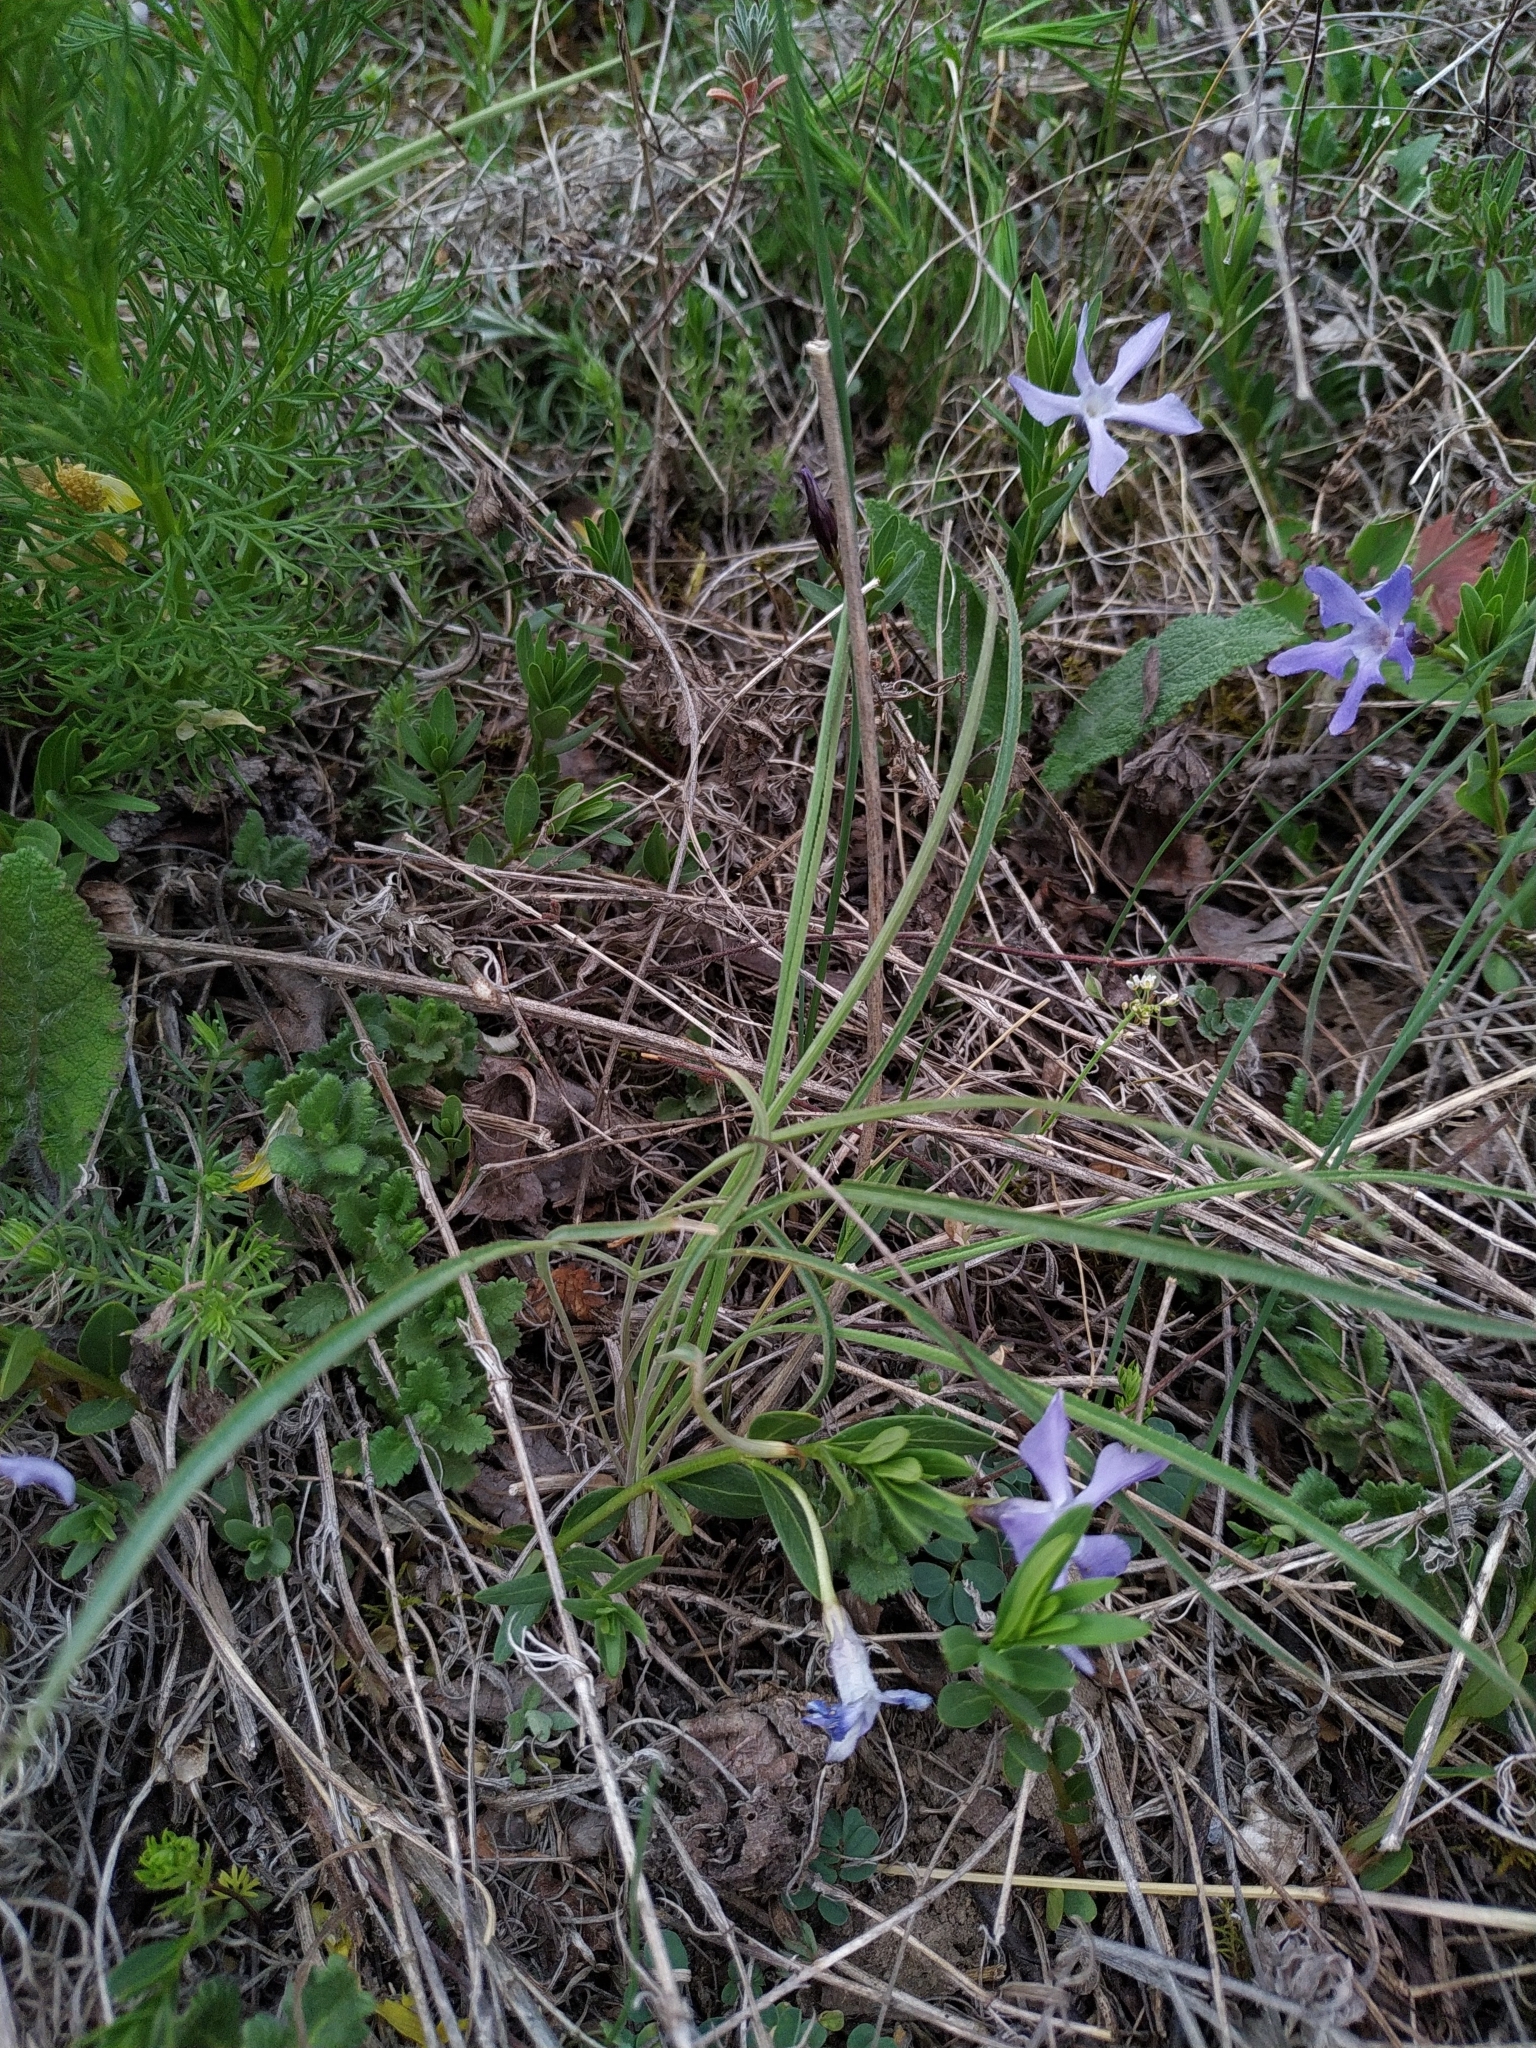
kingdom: Plantae
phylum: Tracheophyta
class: Magnoliopsida
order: Apiales
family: Apiaceae
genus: Falcaria
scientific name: Falcaria vulgaris
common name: Longleaf
